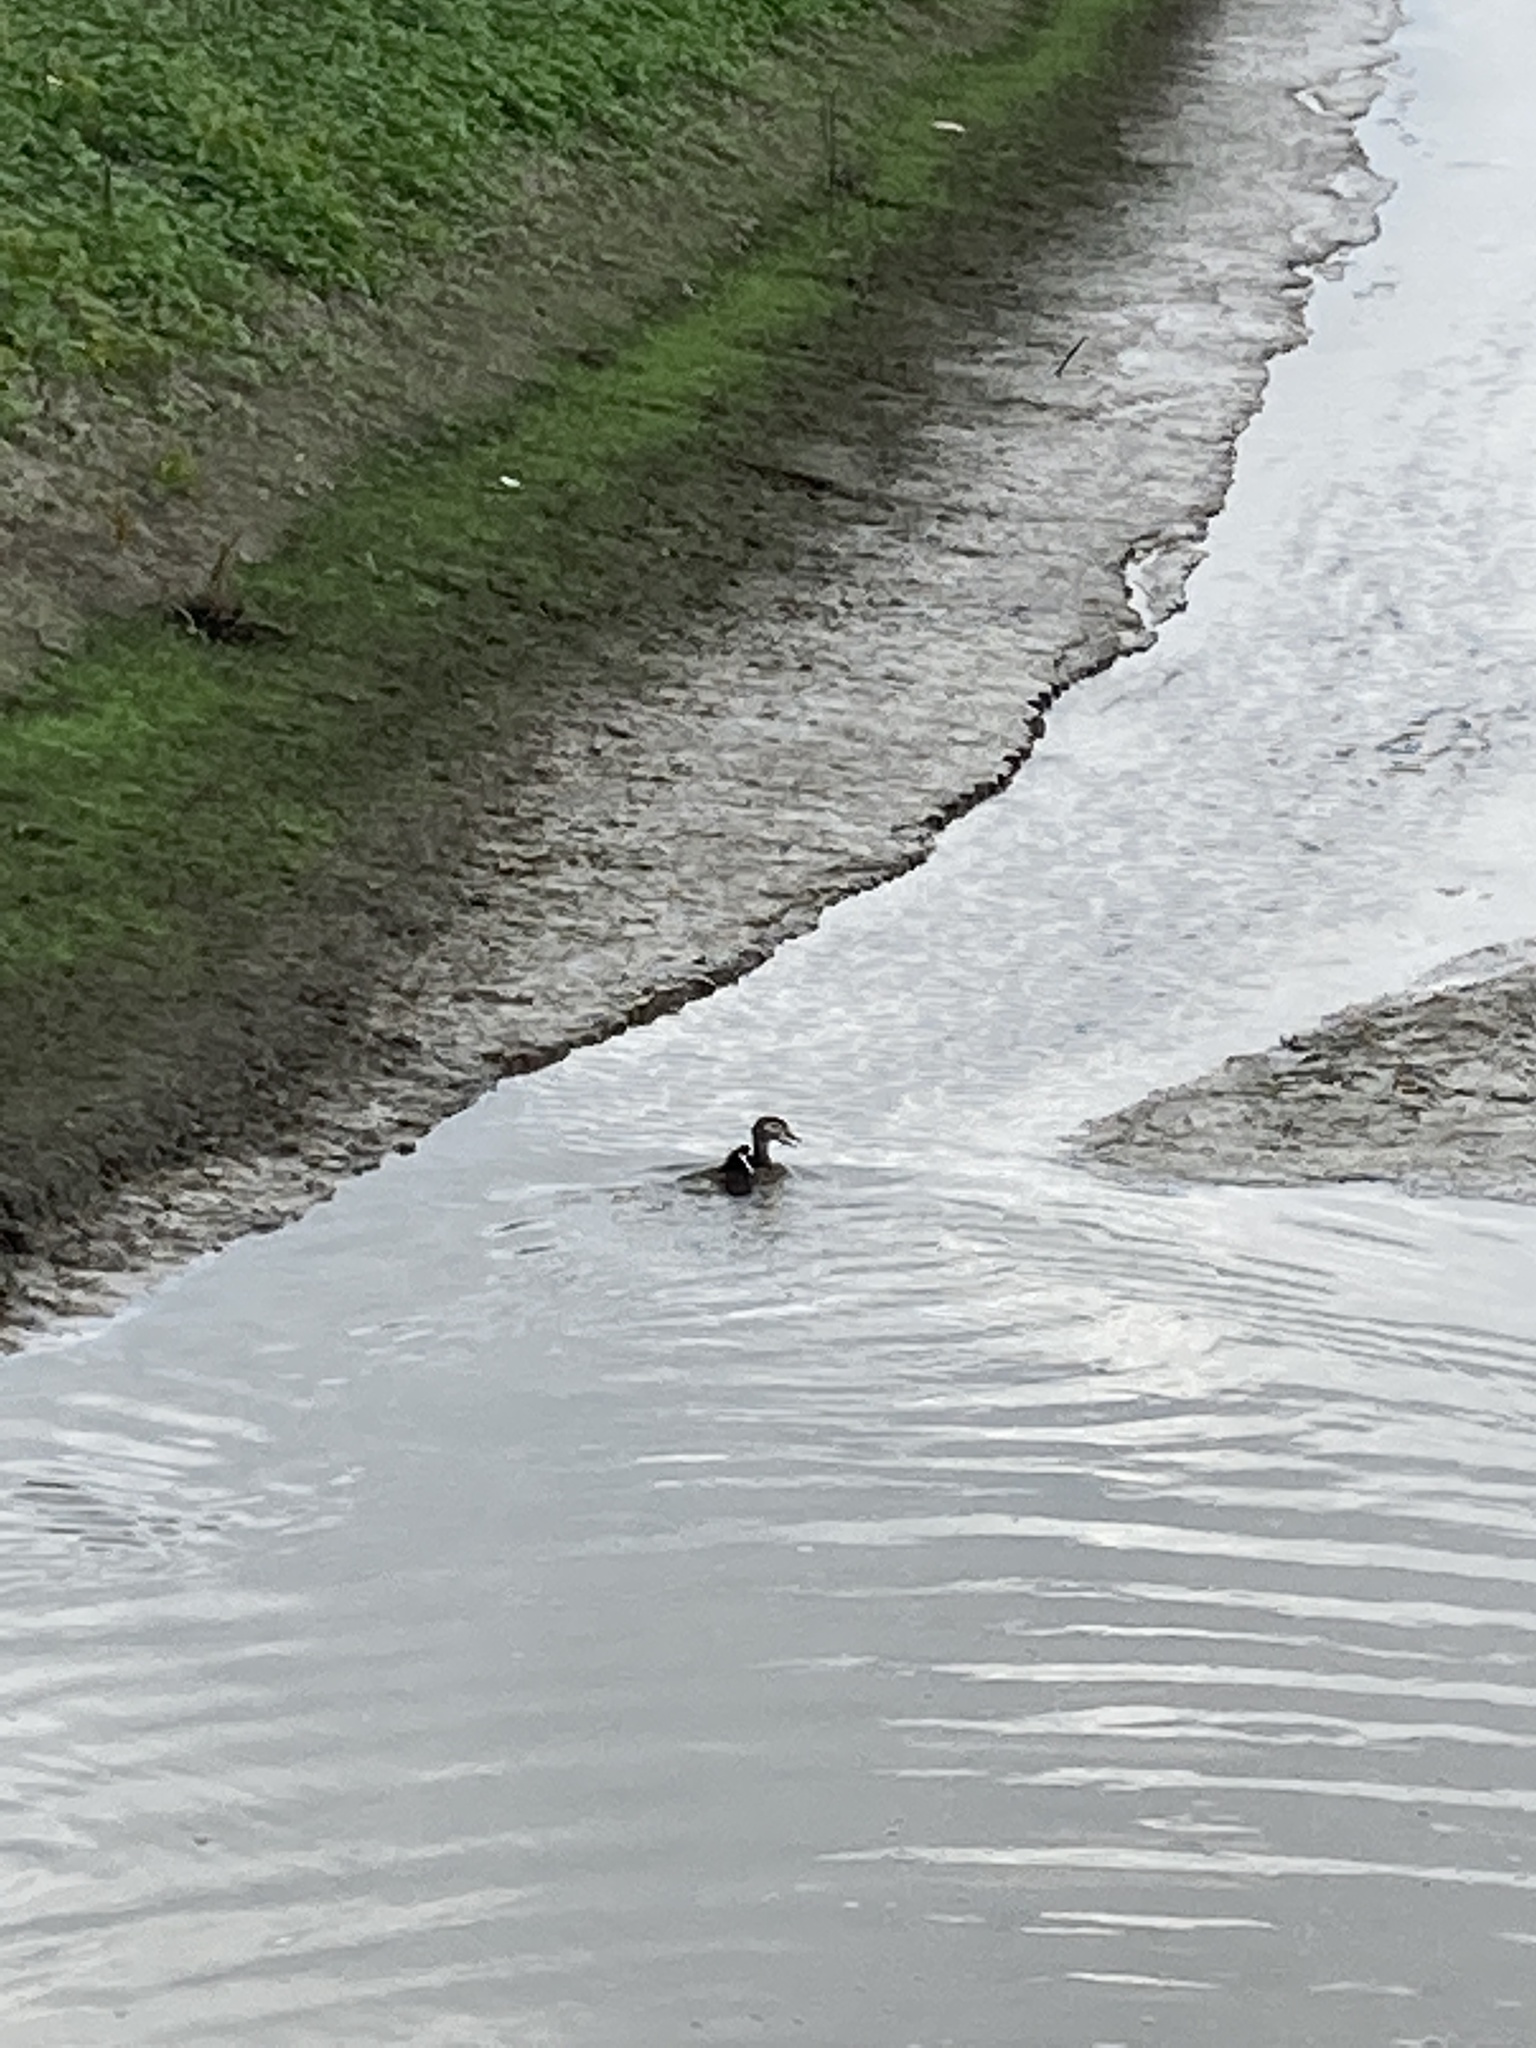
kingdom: Animalia
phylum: Chordata
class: Aves
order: Anseriformes
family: Anatidae
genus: Aix
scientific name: Aix sponsa
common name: Wood duck
